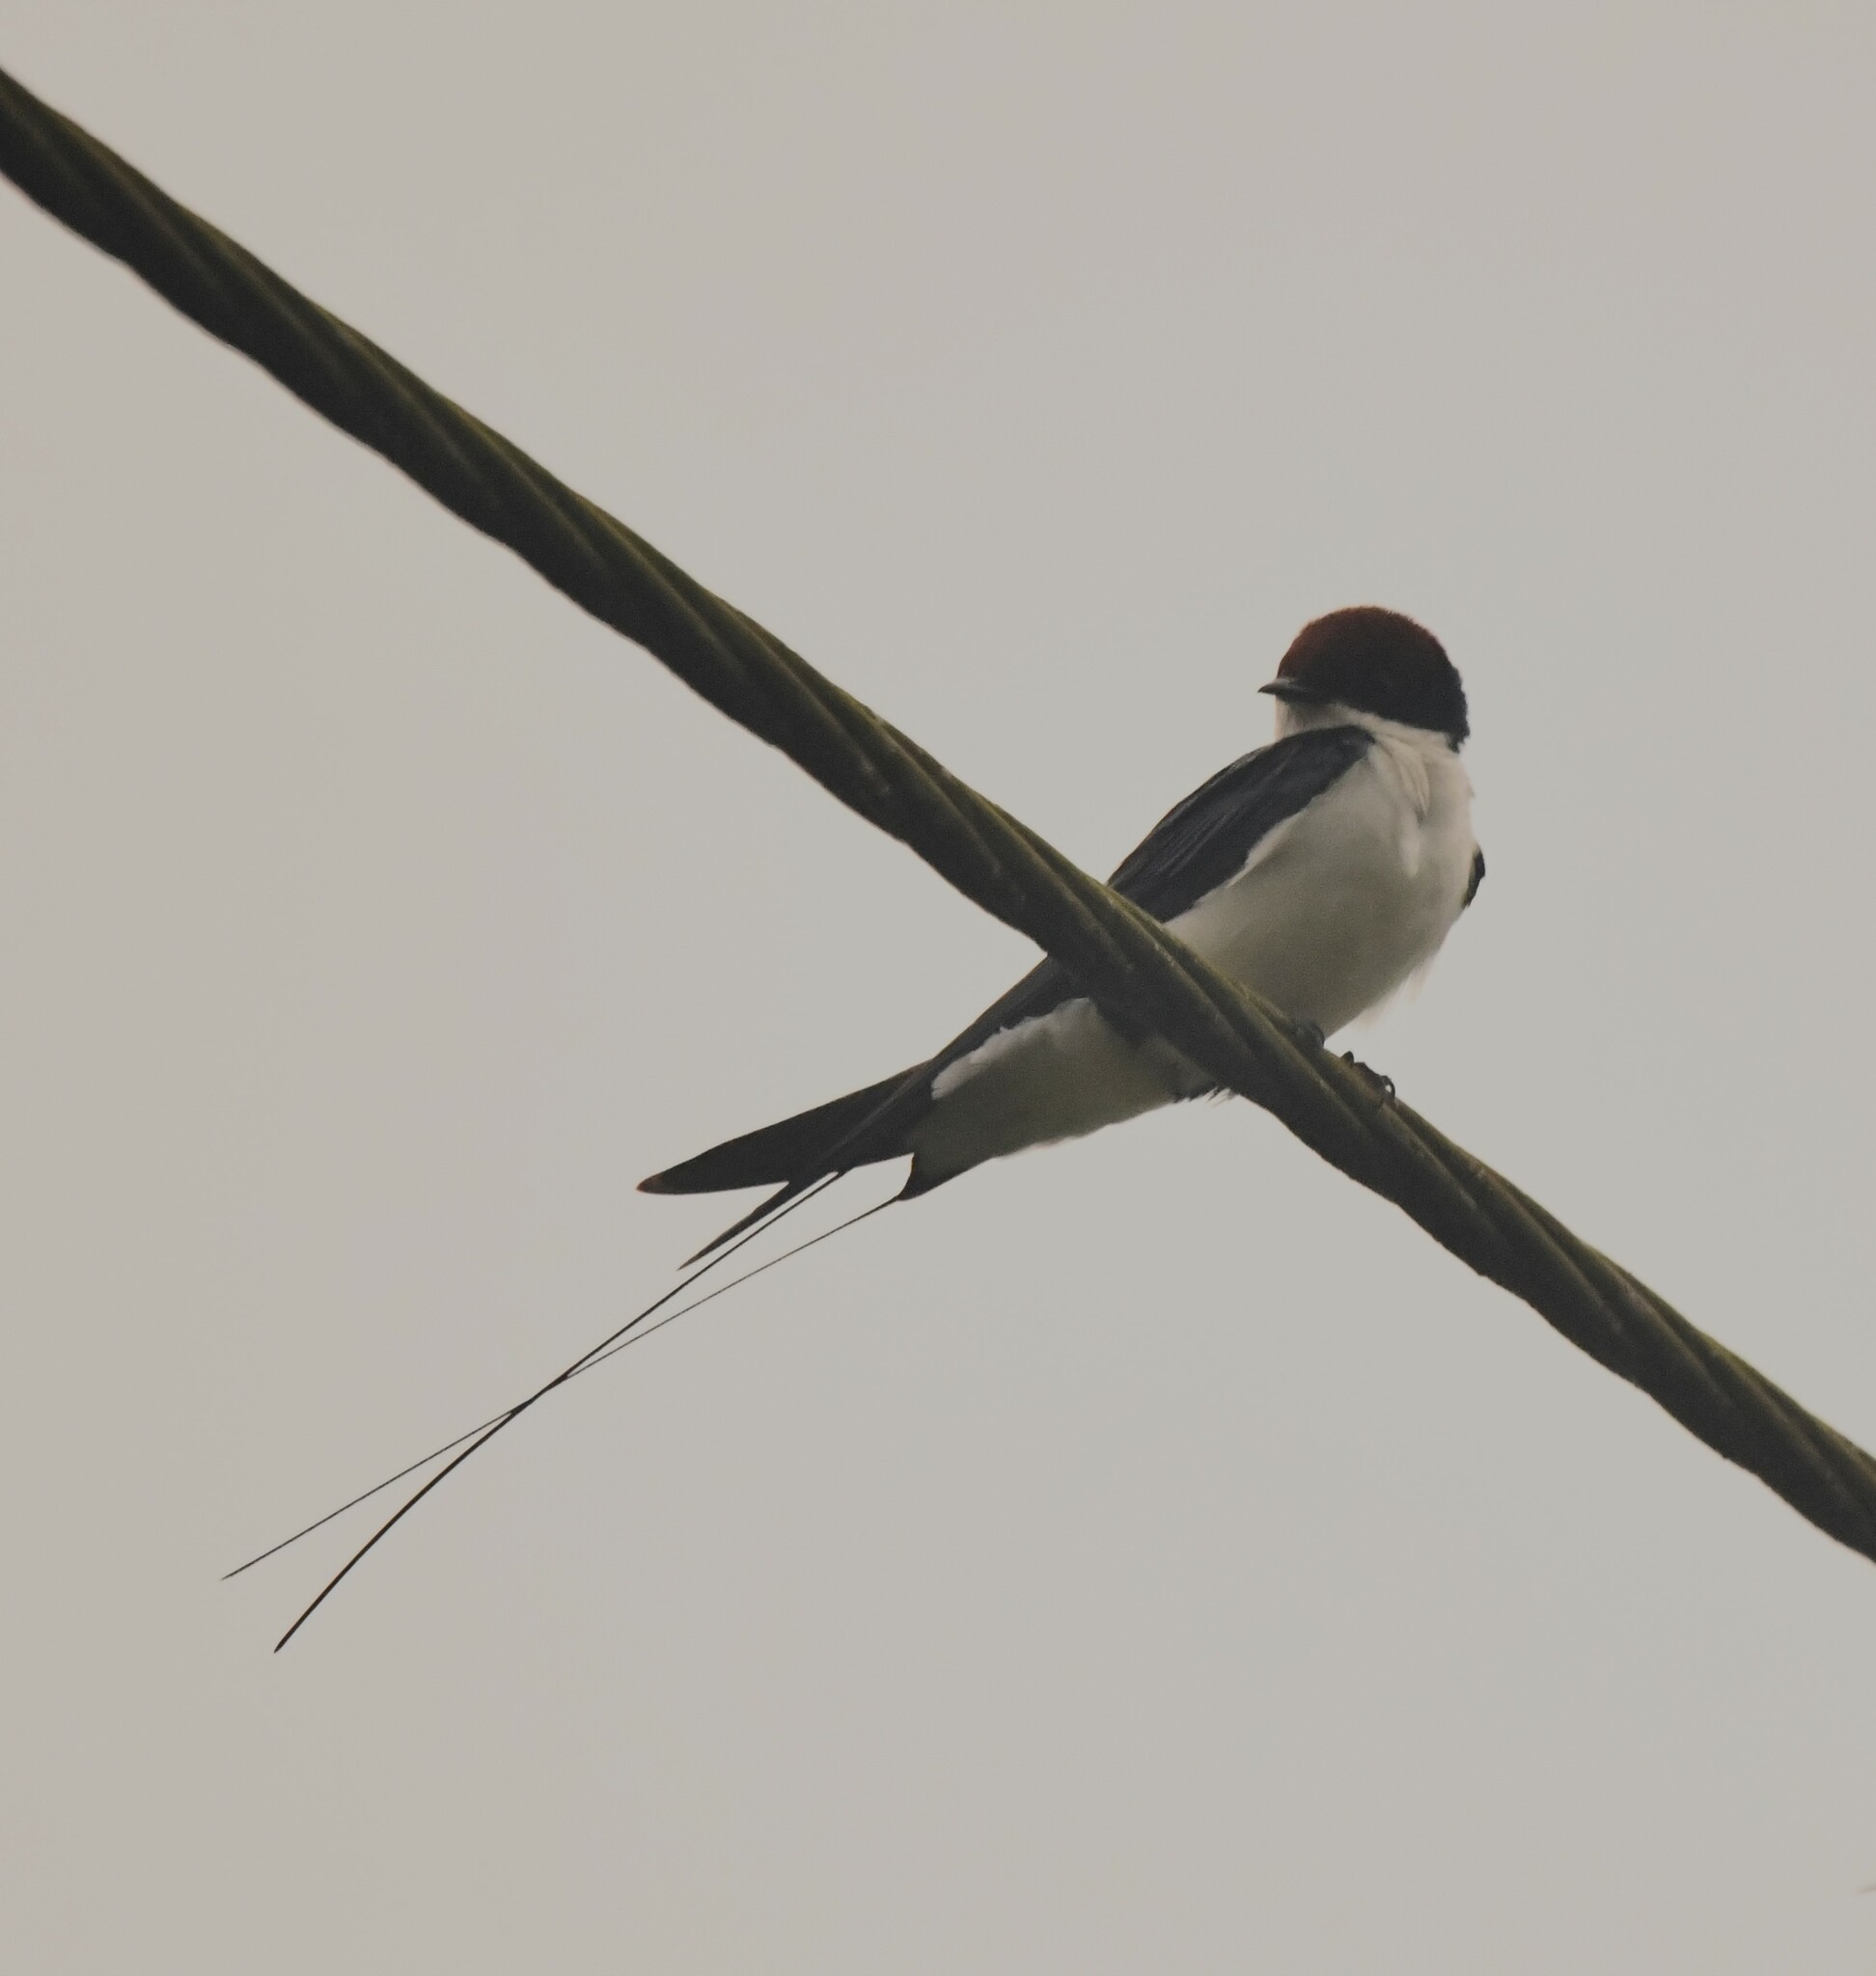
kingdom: Animalia
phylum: Chordata
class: Aves
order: Passeriformes
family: Hirundinidae
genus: Hirundo
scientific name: Hirundo smithii
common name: Wire-tailed swallow
